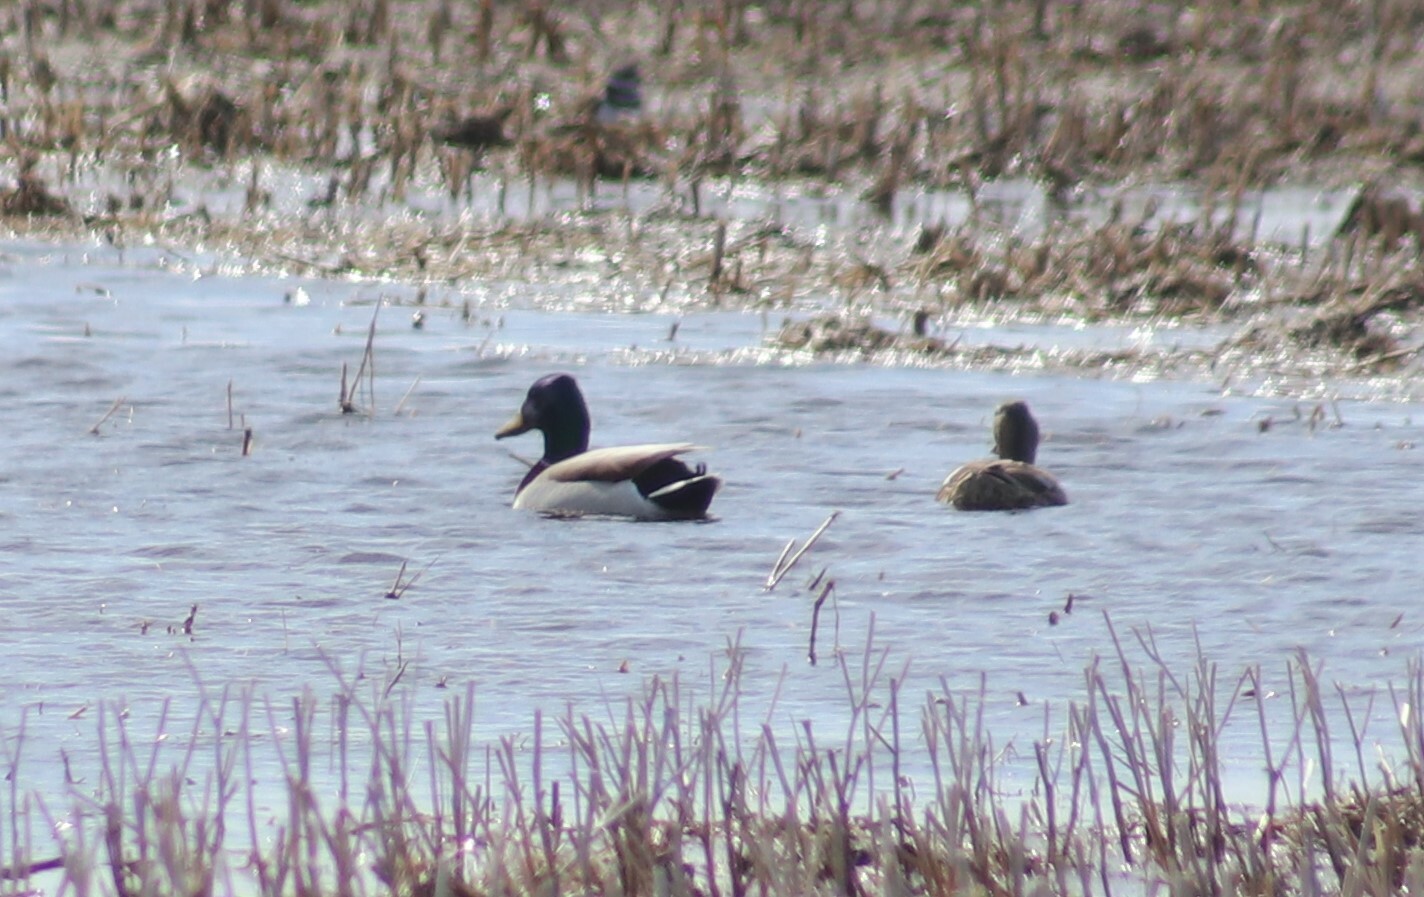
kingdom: Animalia
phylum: Chordata
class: Aves
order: Anseriformes
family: Anatidae
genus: Anas
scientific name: Anas platyrhynchos
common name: Mallard
